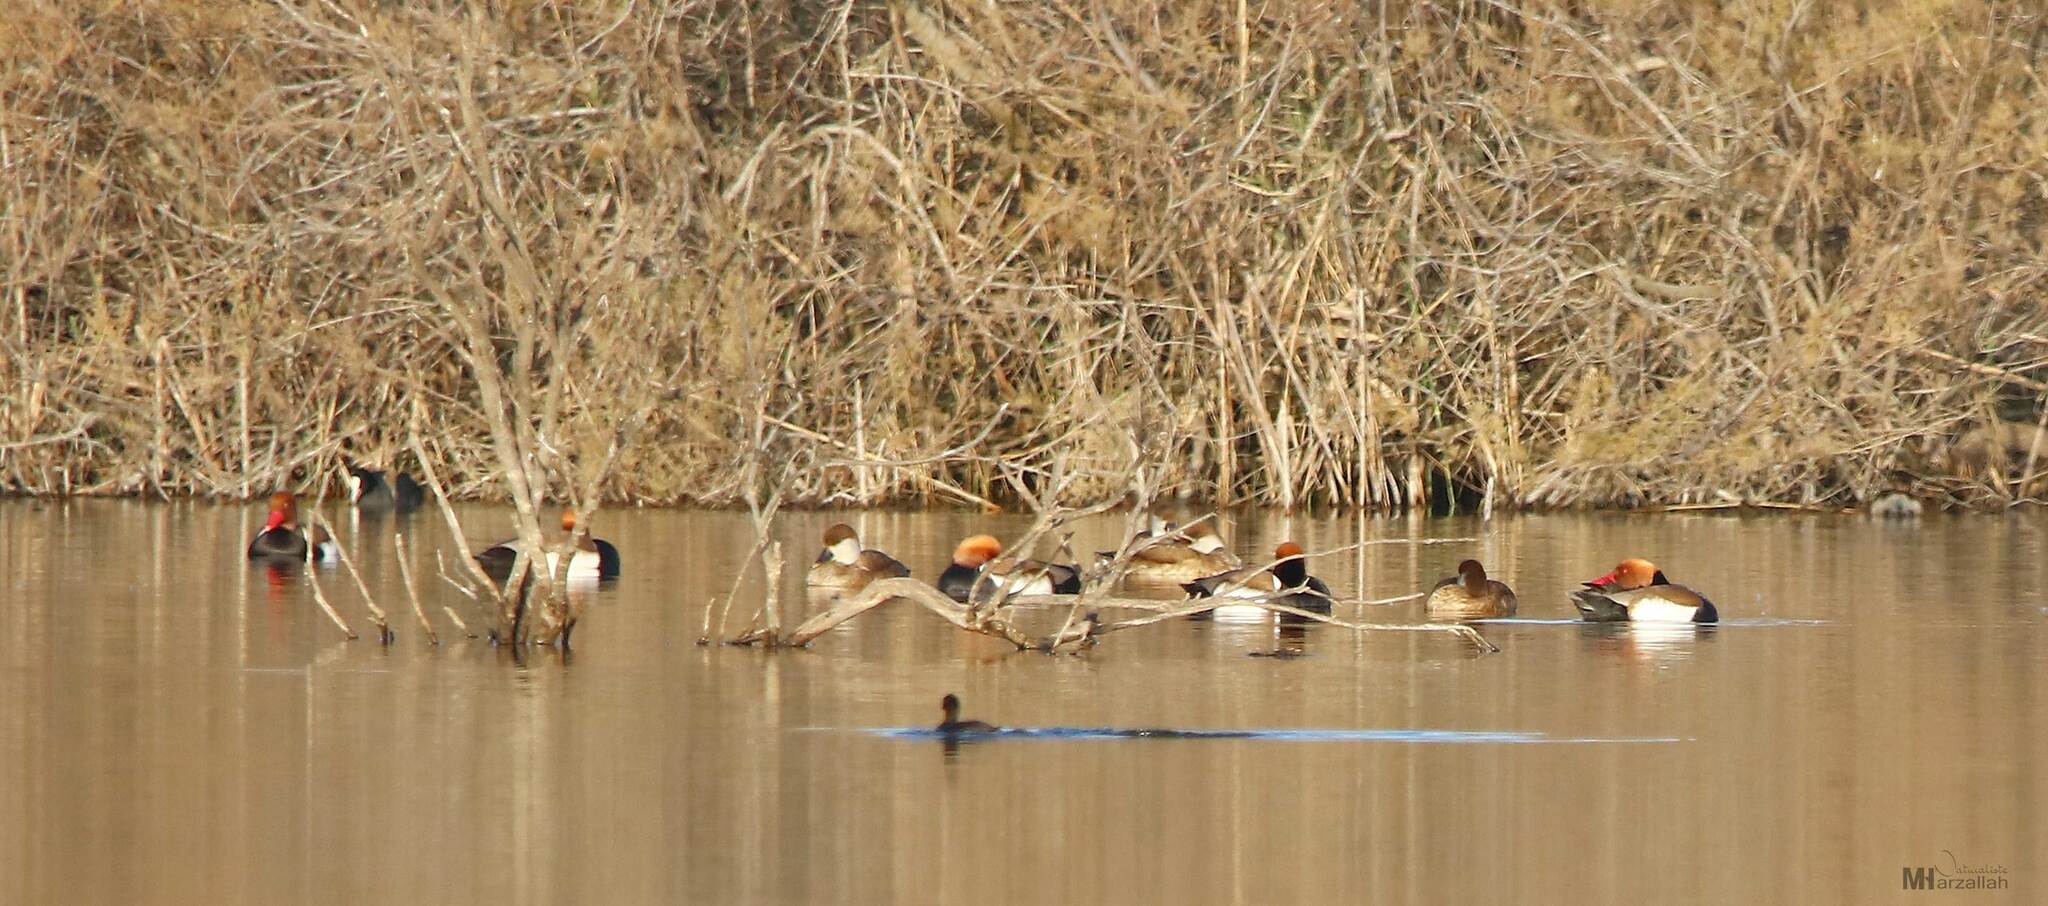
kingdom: Animalia
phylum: Chordata
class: Aves
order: Anseriformes
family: Anatidae
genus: Netta
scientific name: Netta rufina
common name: Red-crested pochard
